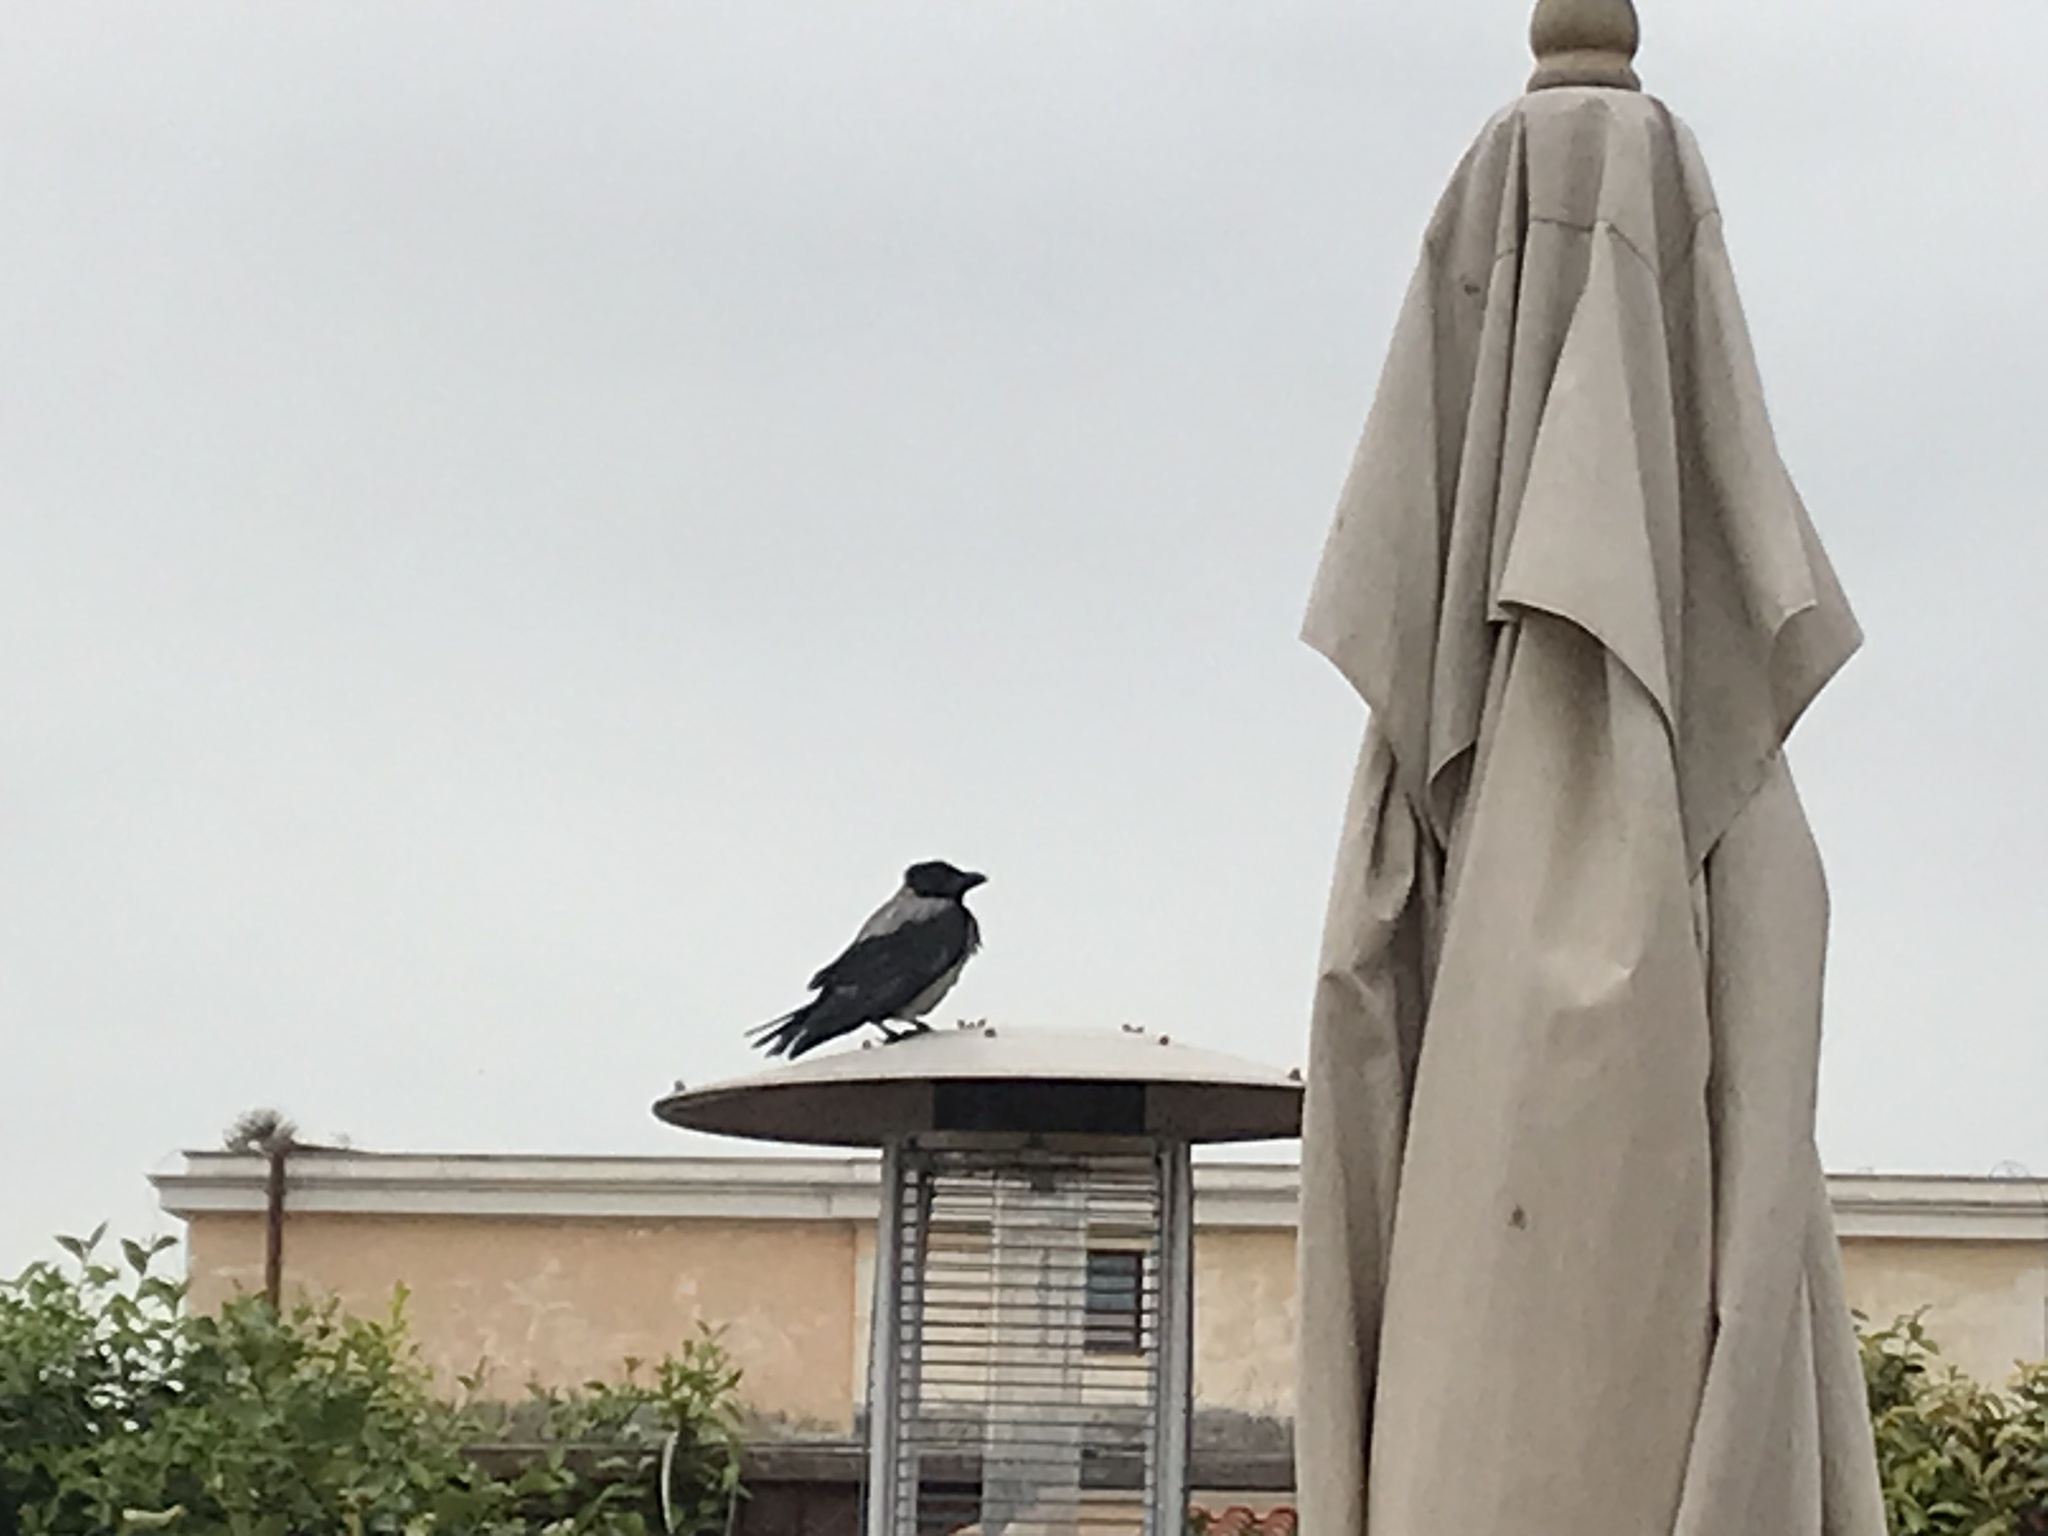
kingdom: Animalia
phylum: Chordata
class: Aves
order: Passeriformes
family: Corvidae
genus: Corvus
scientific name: Corvus cornix
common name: Hooded crow
